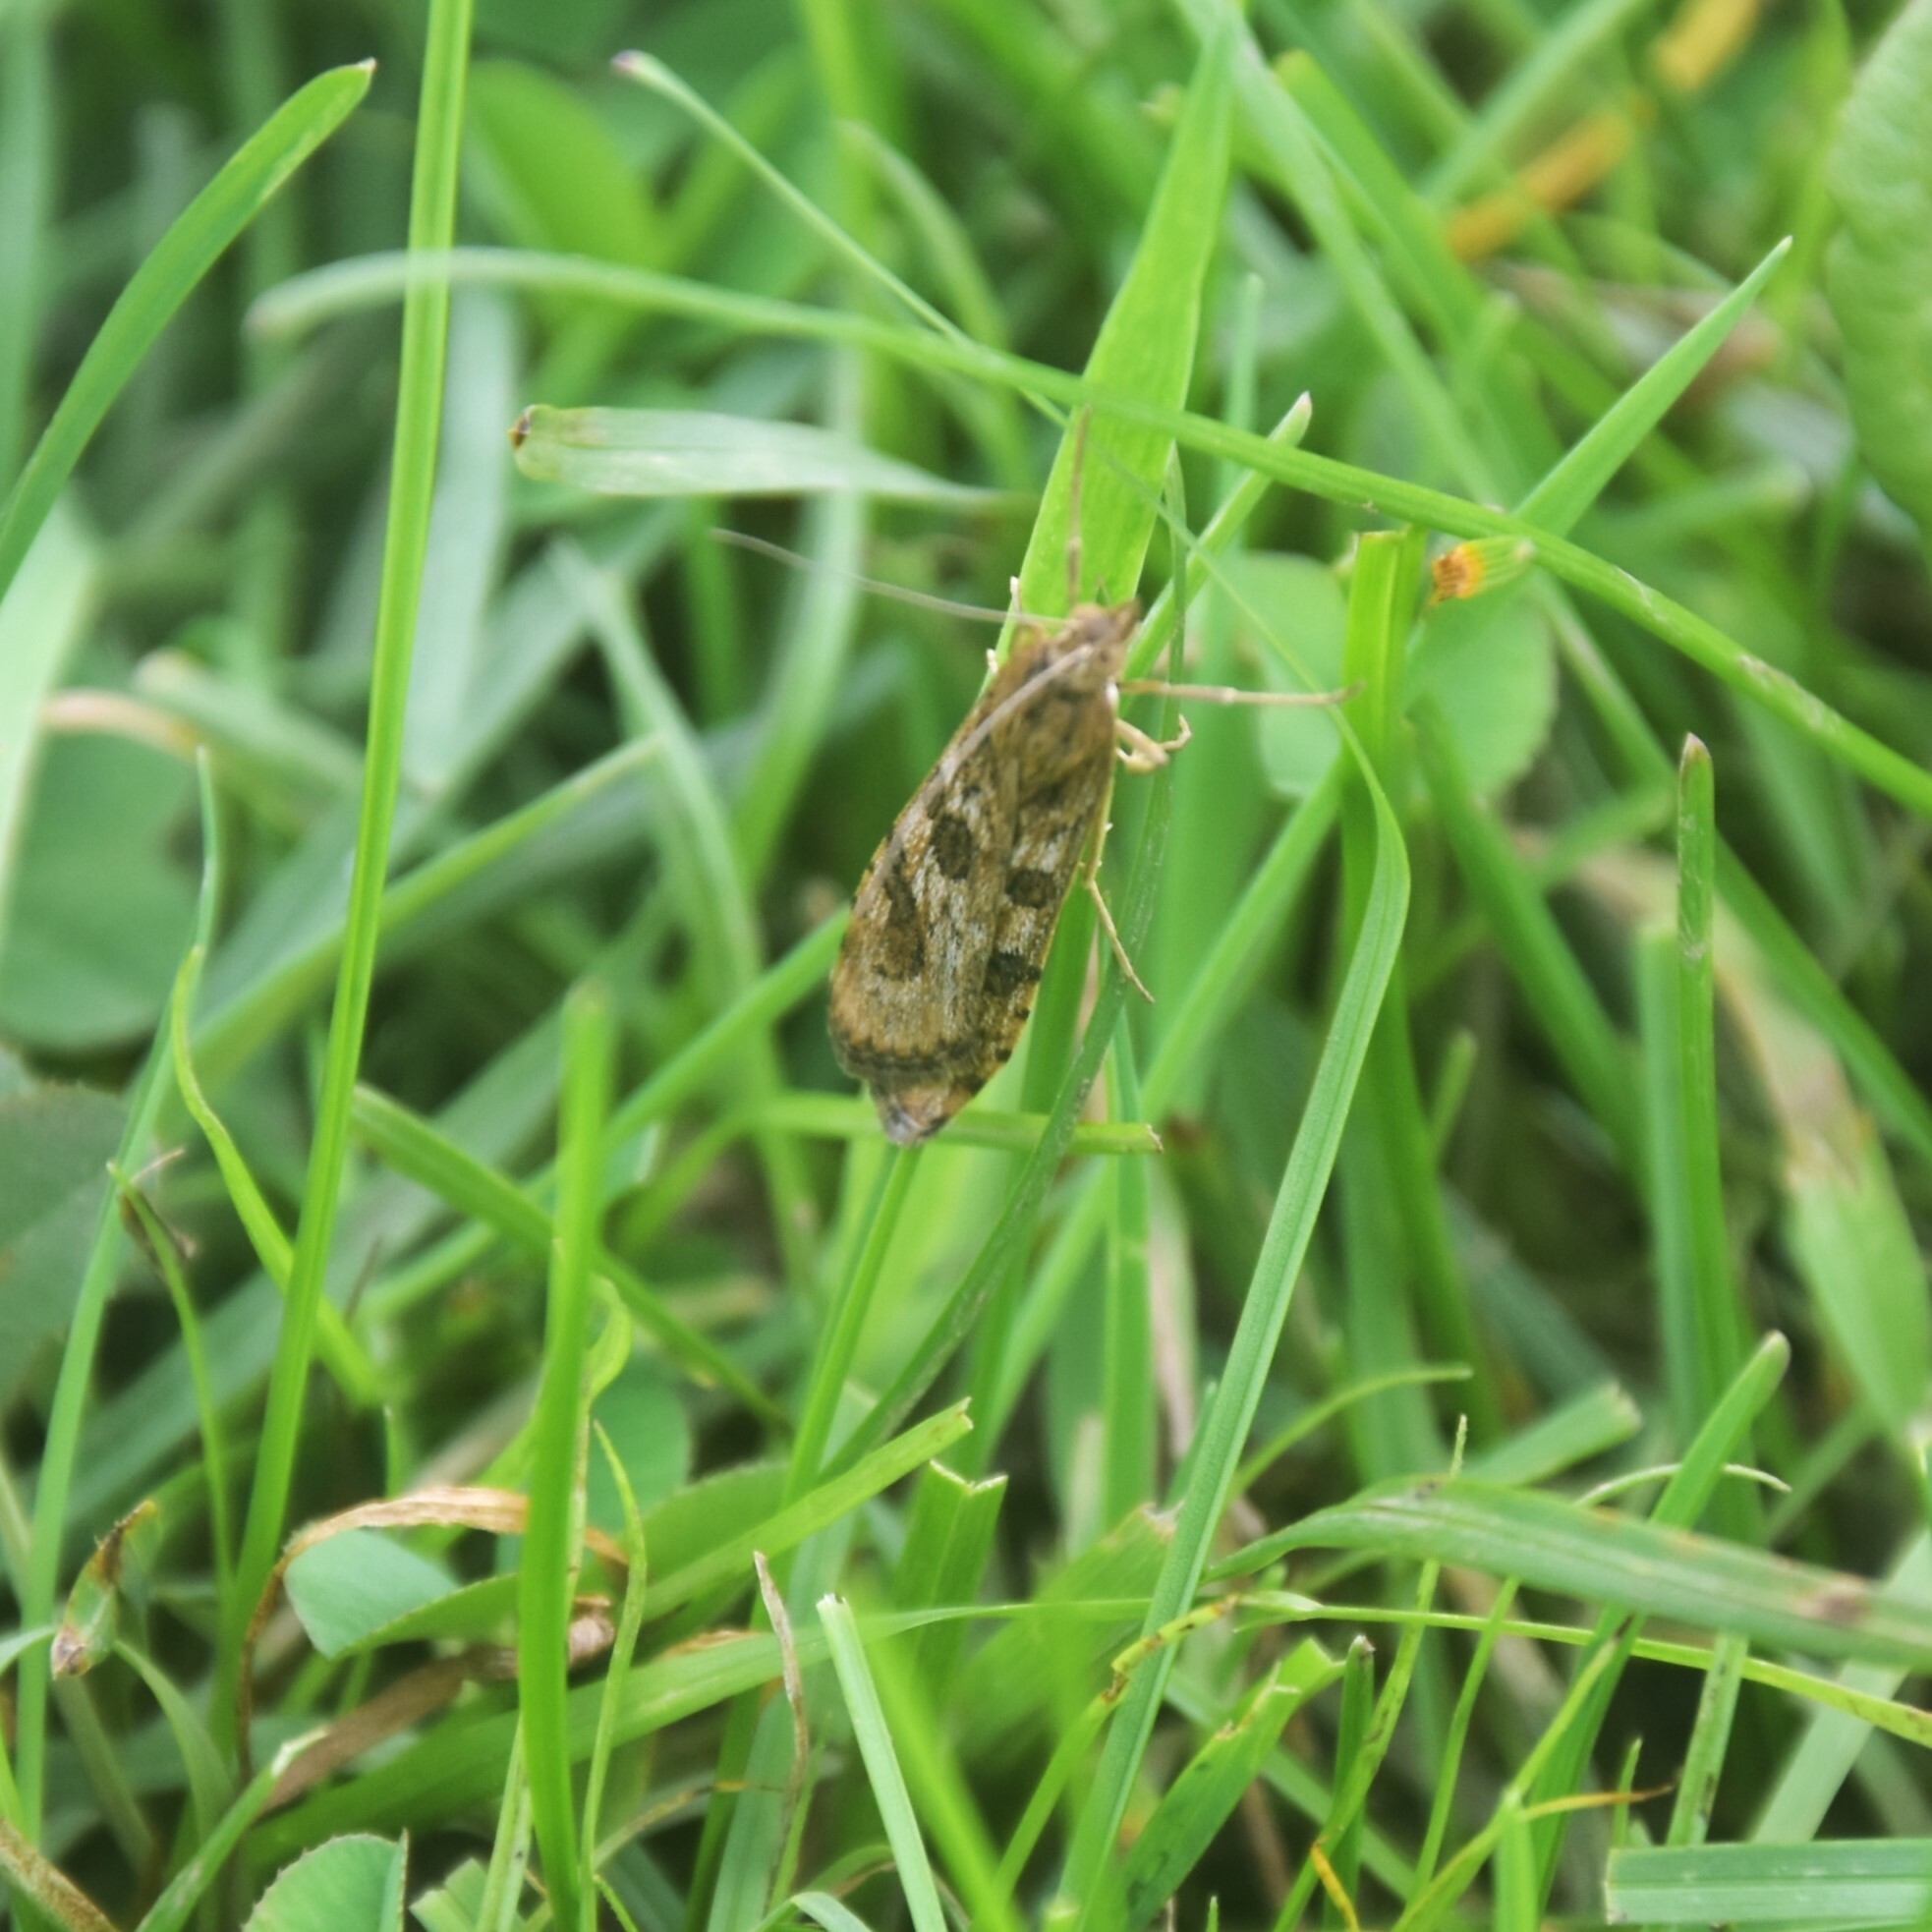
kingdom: Animalia
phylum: Arthropoda
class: Insecta
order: Lepidoptera
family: Crambidae
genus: Nomophila
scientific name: Nomophila noctuella
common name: Rush veneer
